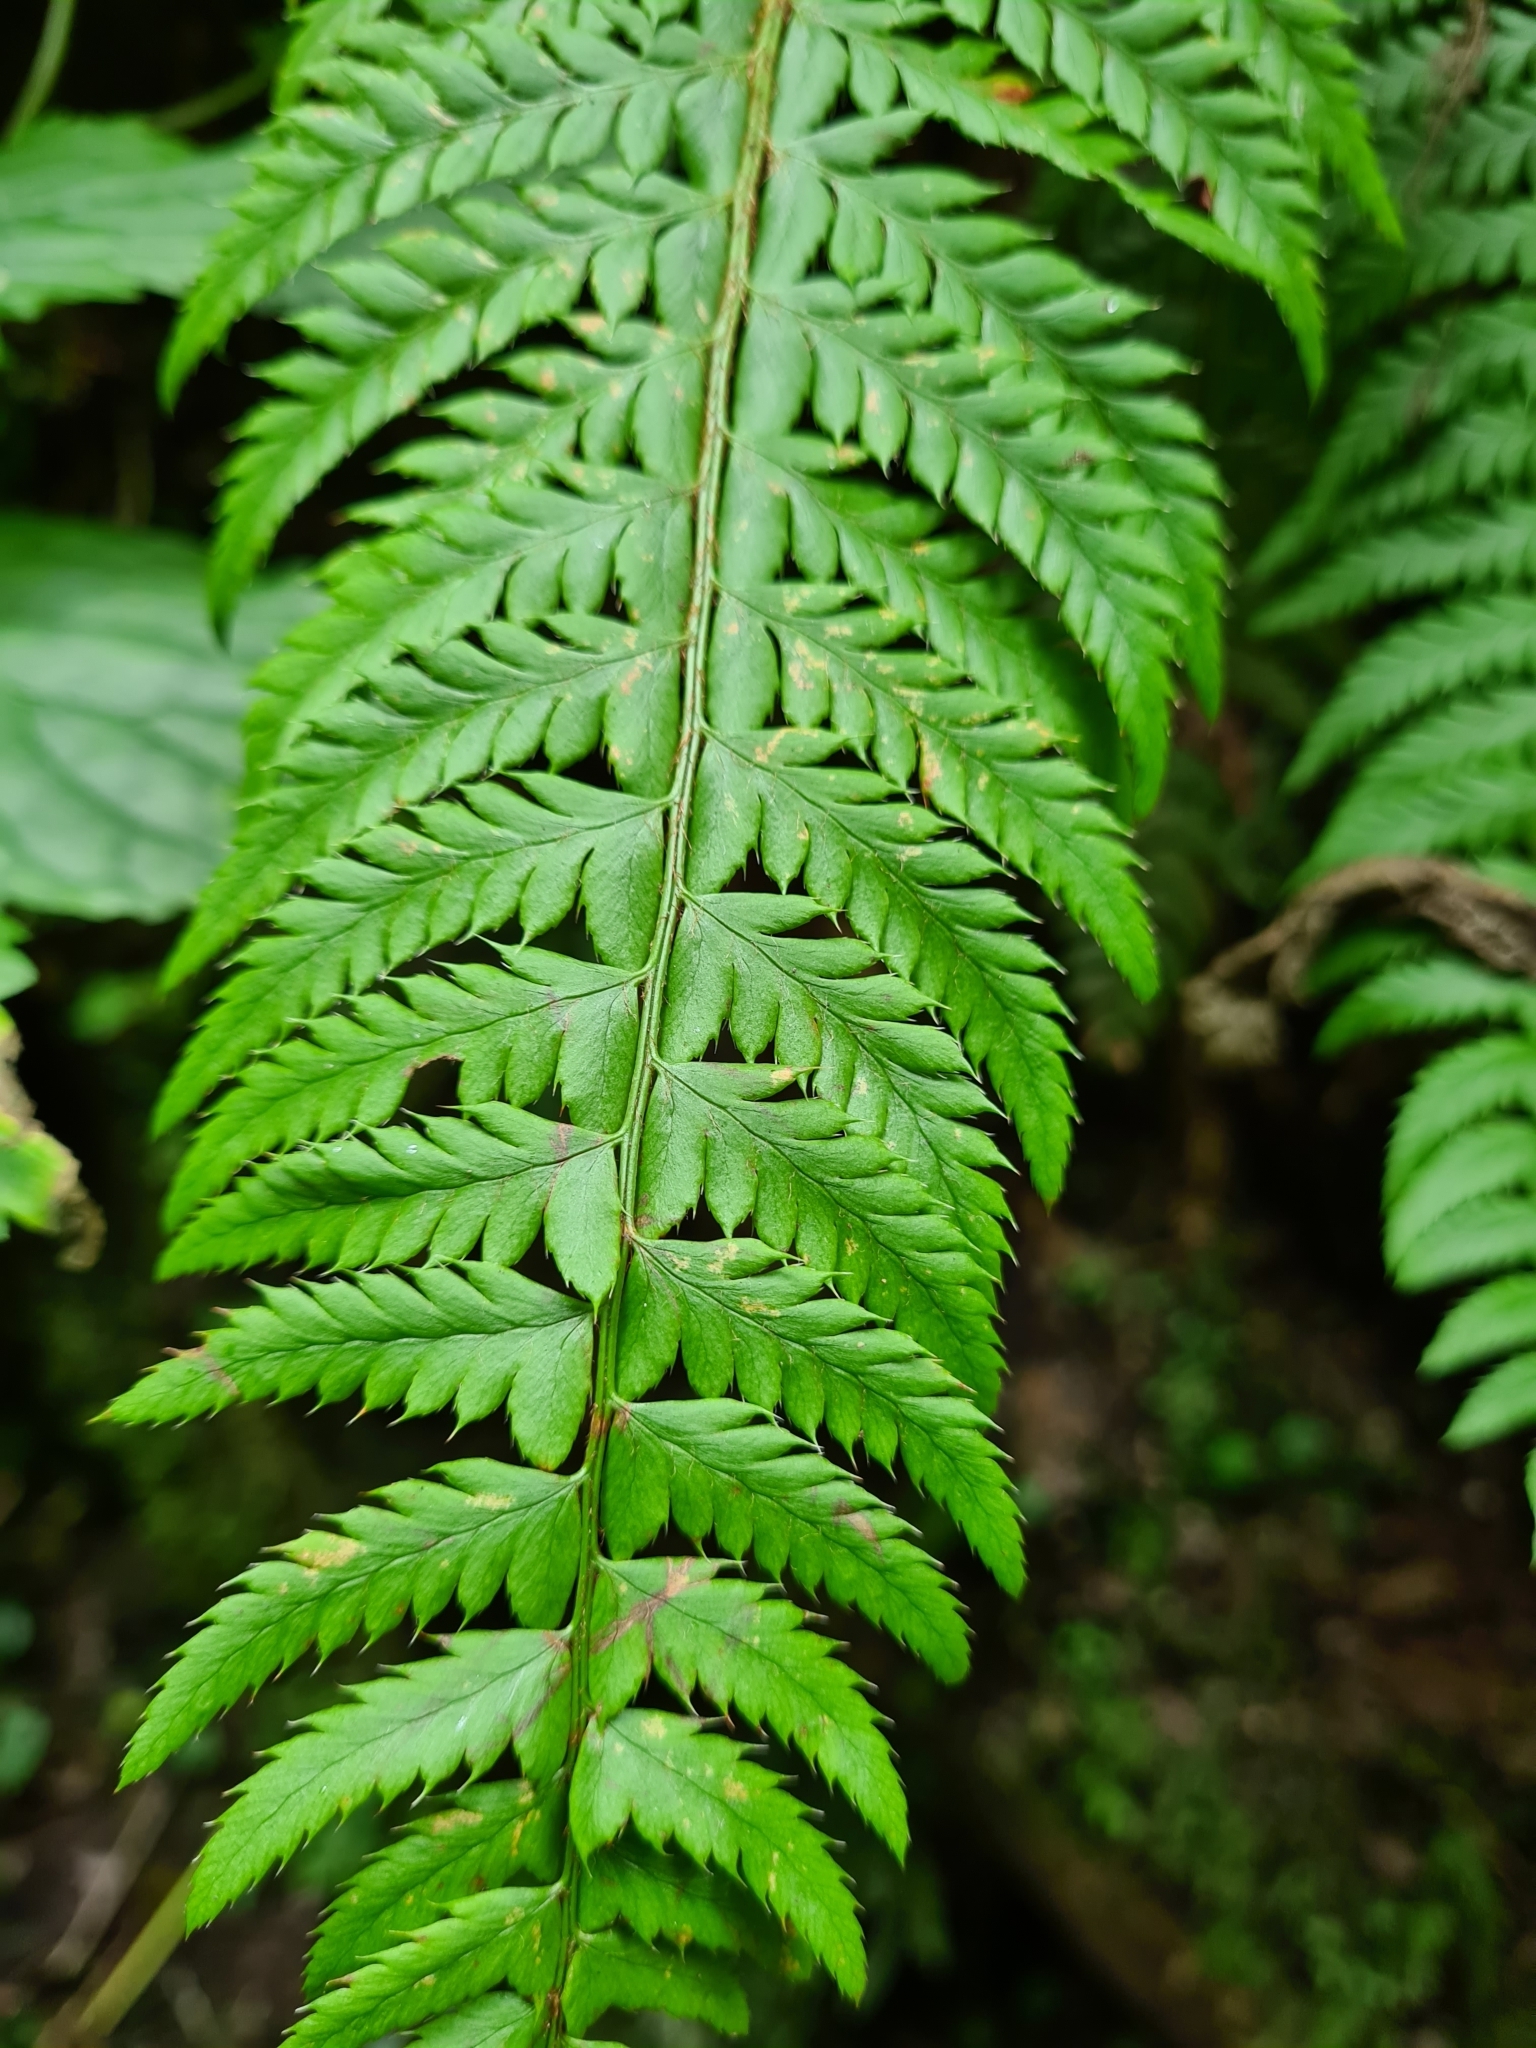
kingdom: Plantae
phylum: Tracheophyta
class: Polypodiopsida
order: Polypodiales
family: Dryopteridaceae
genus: Polystichum
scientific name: Polystichum aculeatum
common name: Hard shield-fern
